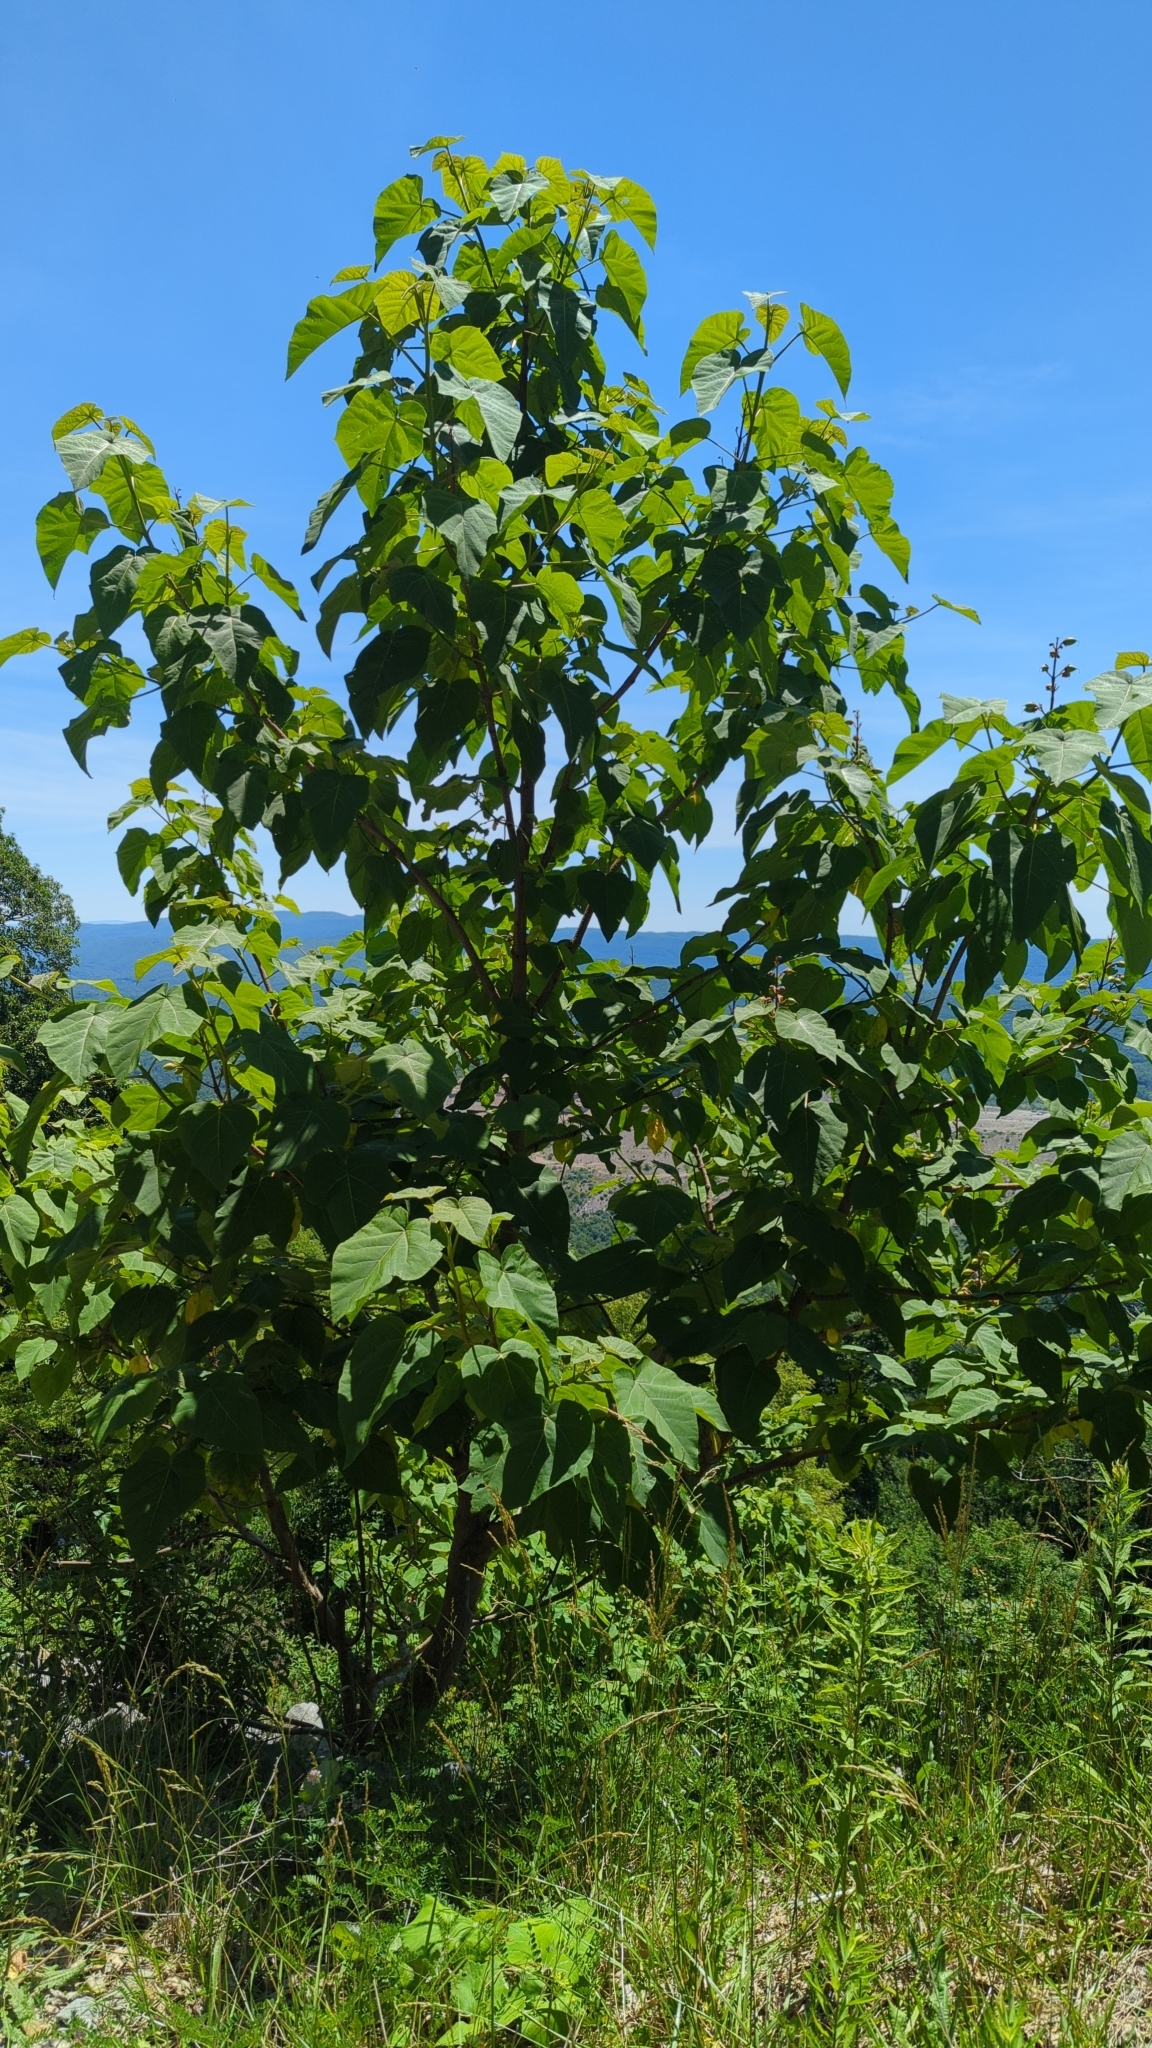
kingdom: Plantae
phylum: Tracheophyta
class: Magnoliopsida
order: Lamiales
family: Paulowniaceae
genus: Paulownia
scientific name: Paulownia tomentosa
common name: Foxglove-tree
